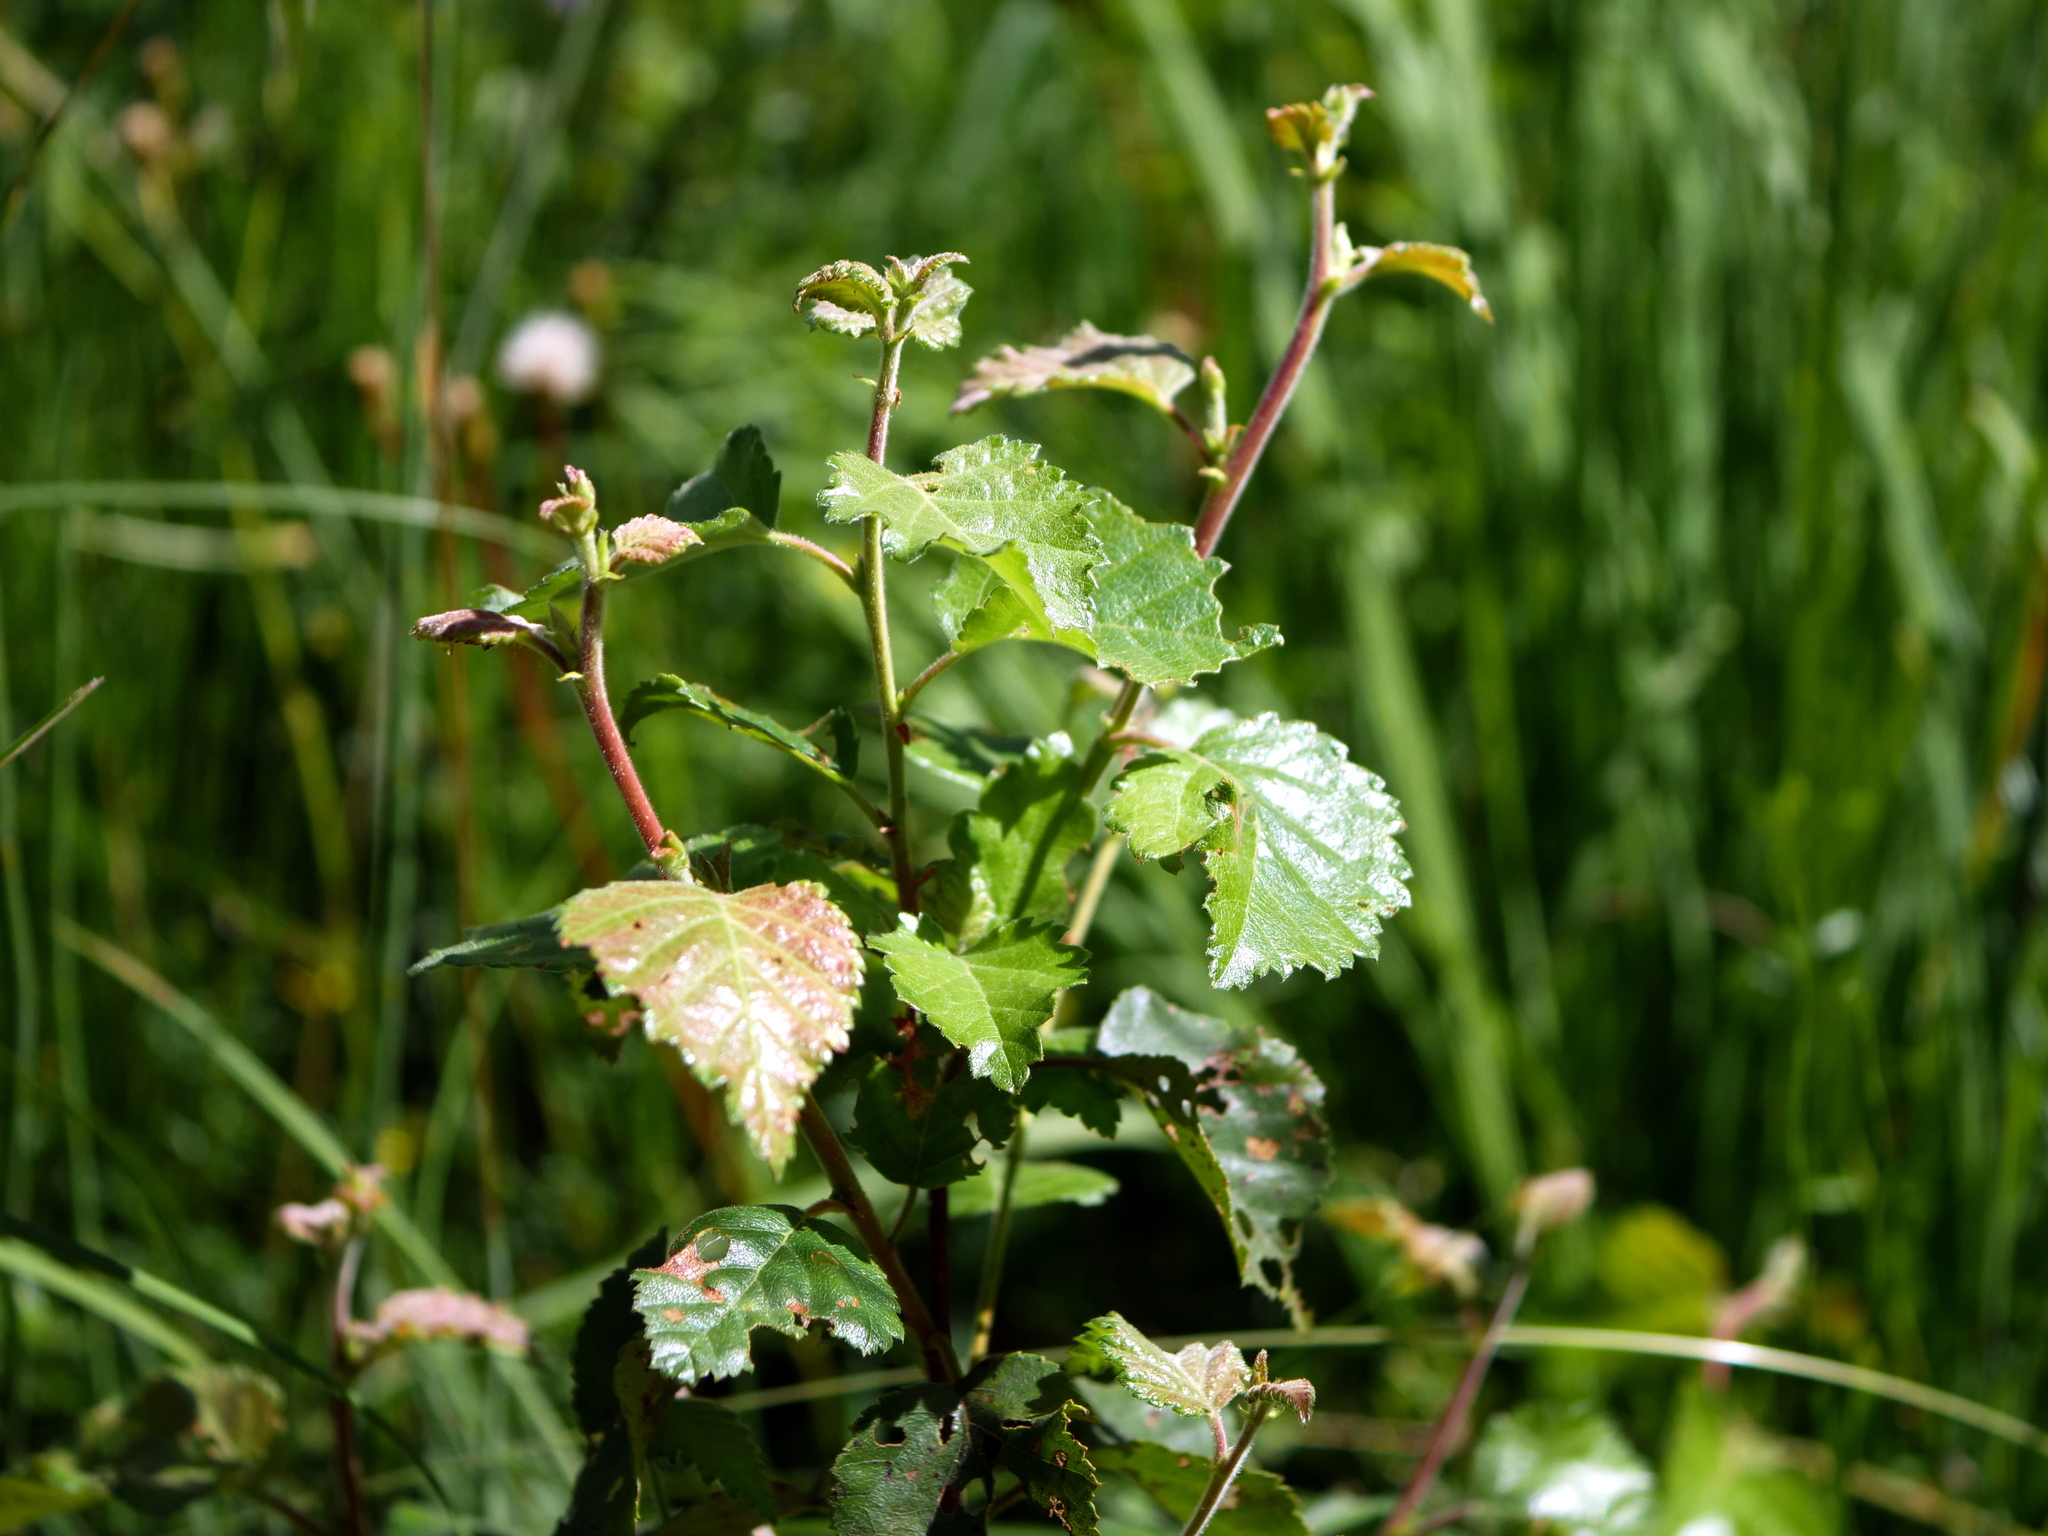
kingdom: Plantae
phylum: Tracheophyta
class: Magnoliopsida
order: Fagales
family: Betulaceae
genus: Betula
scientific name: Betula pubescens
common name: Downy birch
